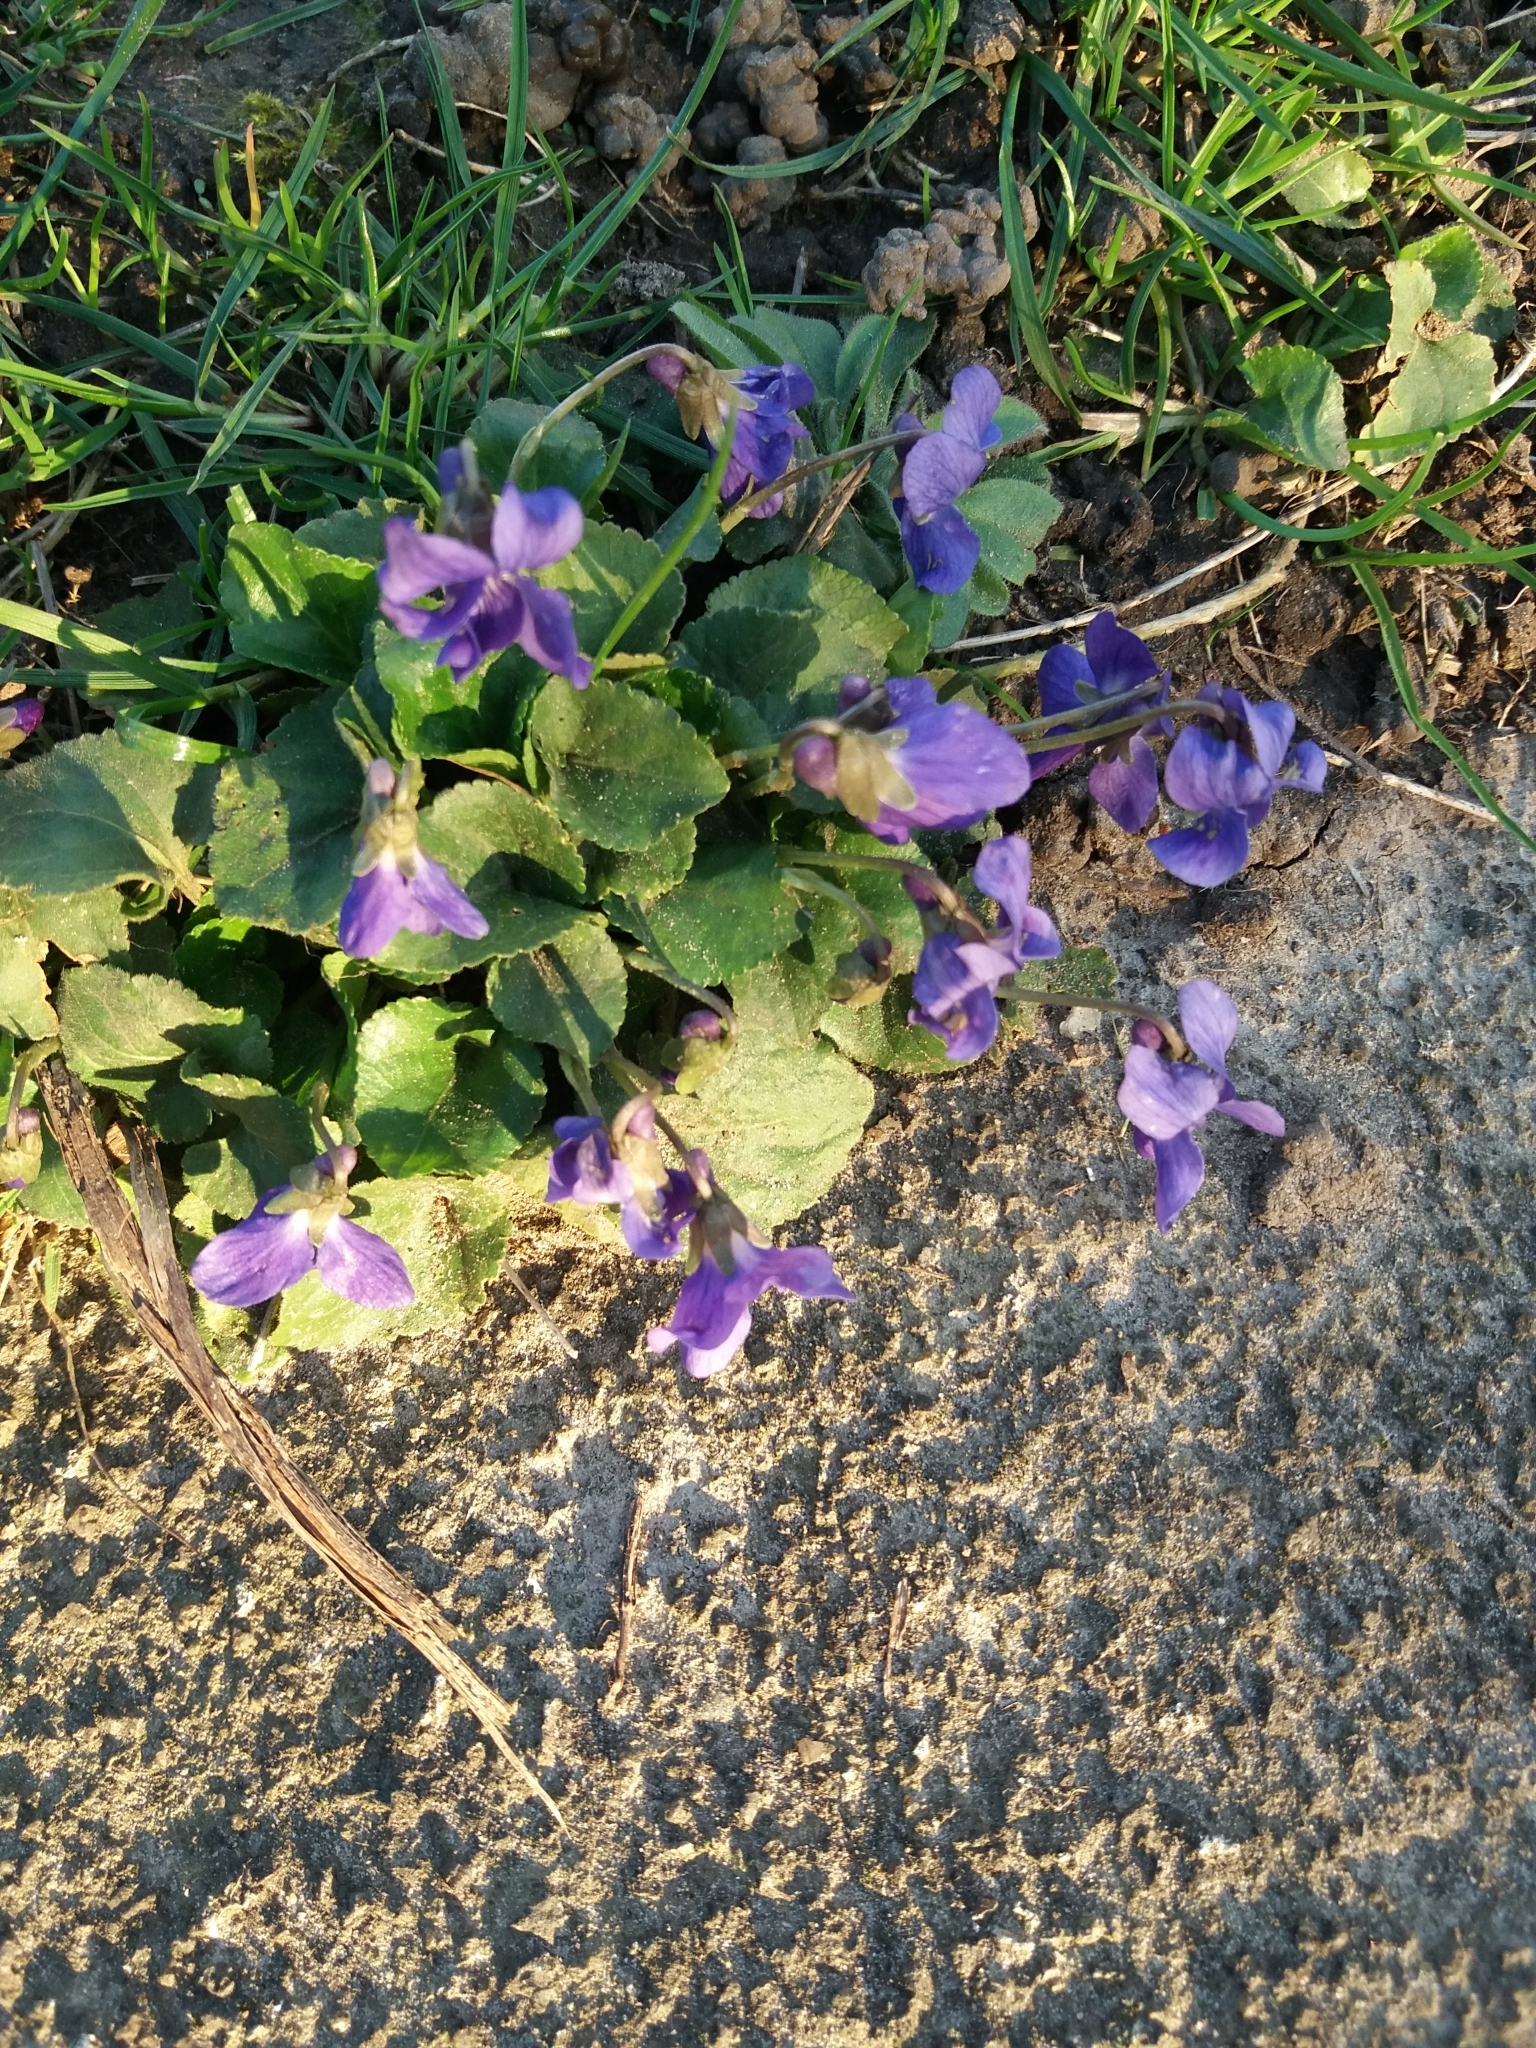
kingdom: Plantae
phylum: Tracheophyta
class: Magnoliopsida
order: Malpighiales
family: Violaceae
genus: Viola
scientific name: Viola odorata
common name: Sweet violet
